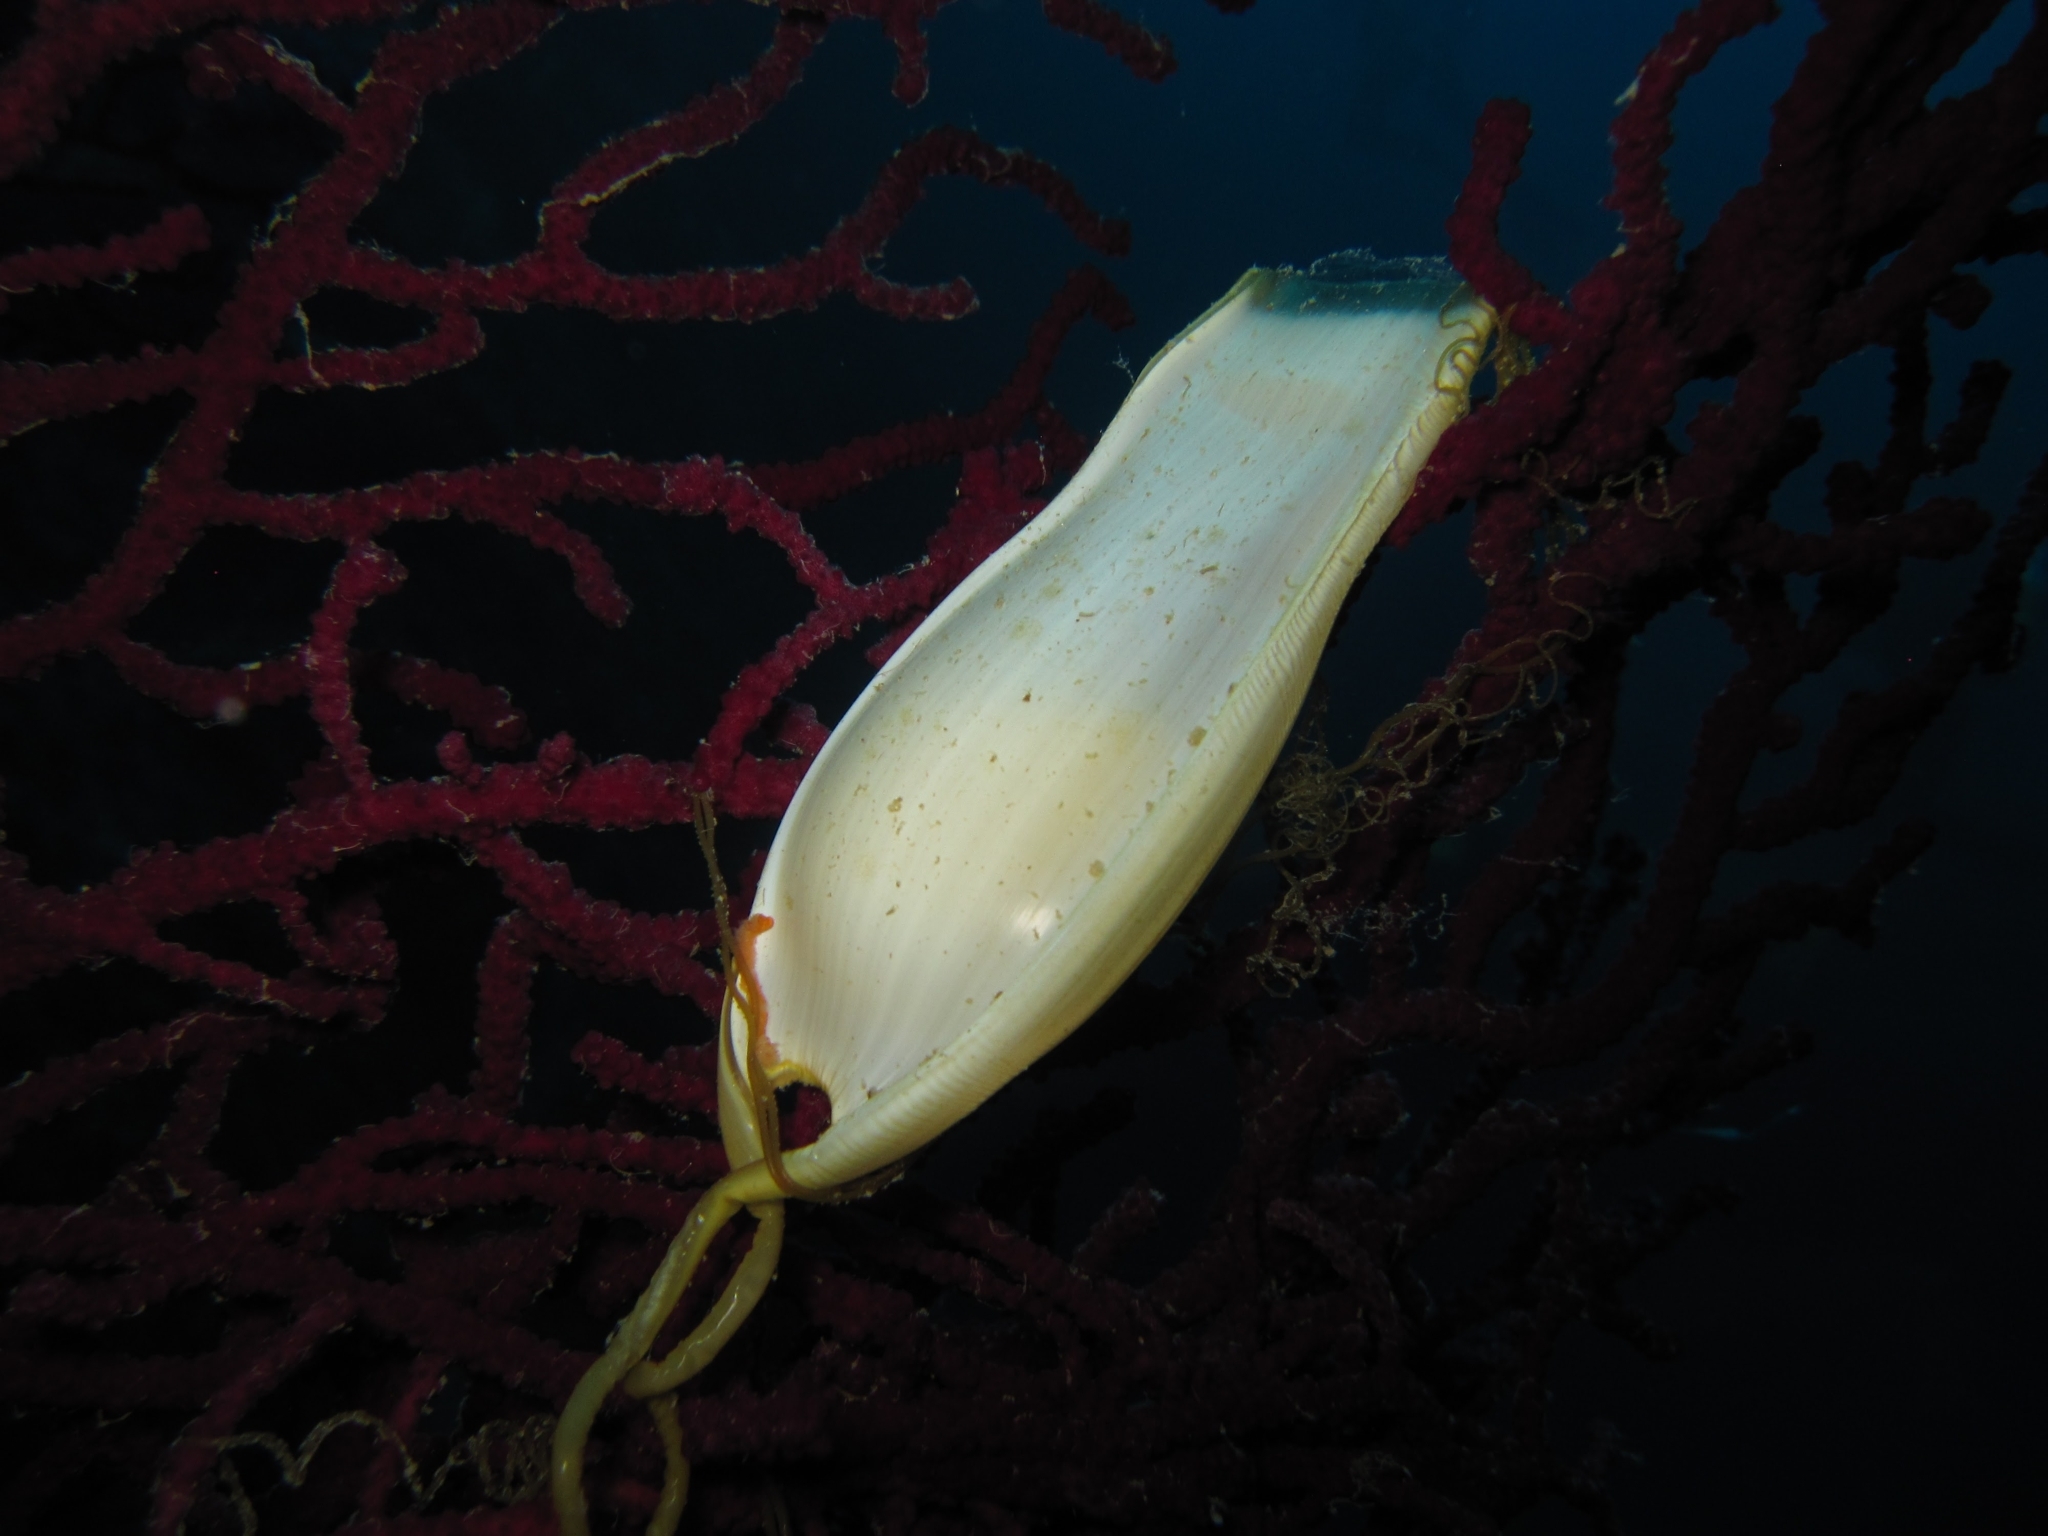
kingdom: Animalia
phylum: Chordata
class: Elasmobranchii
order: Carcharhiniformes
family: Scyliorhinidae
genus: Scyliorhinus
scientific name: Scyliorhinus stellaris
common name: Nursehound
